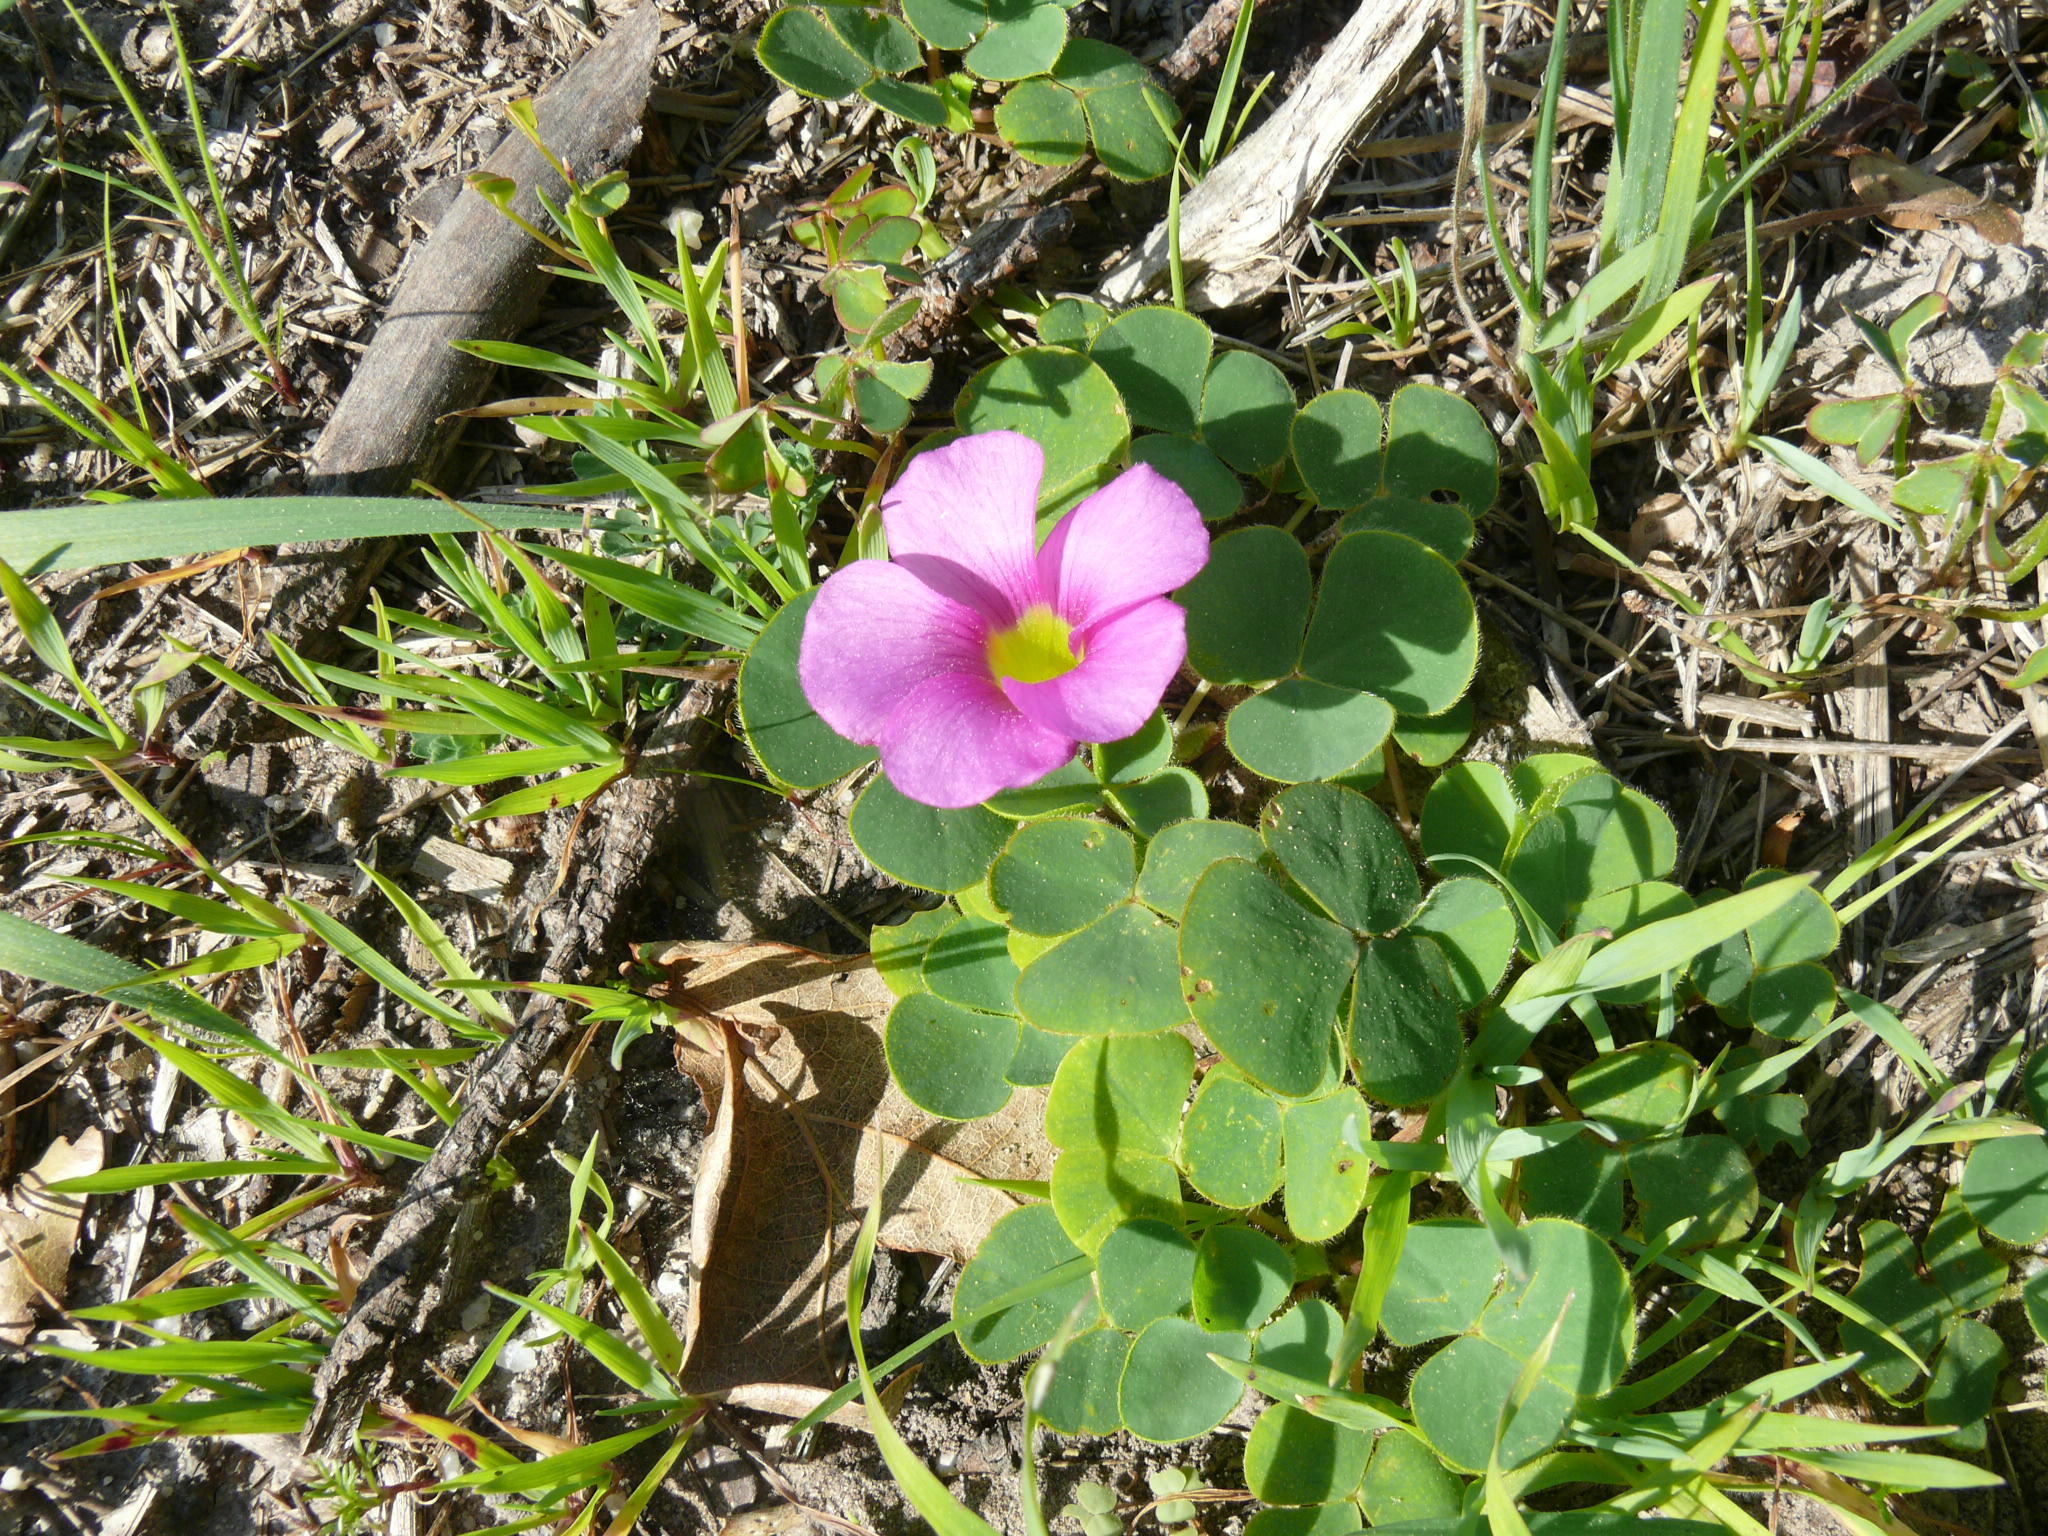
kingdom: Plantae
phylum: Tracheophyta
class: Magnoliopsida
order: Oxalidales
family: Oxalidaceae
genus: Oxalis
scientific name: Oxalis purpurea
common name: Purple woodsorrel
